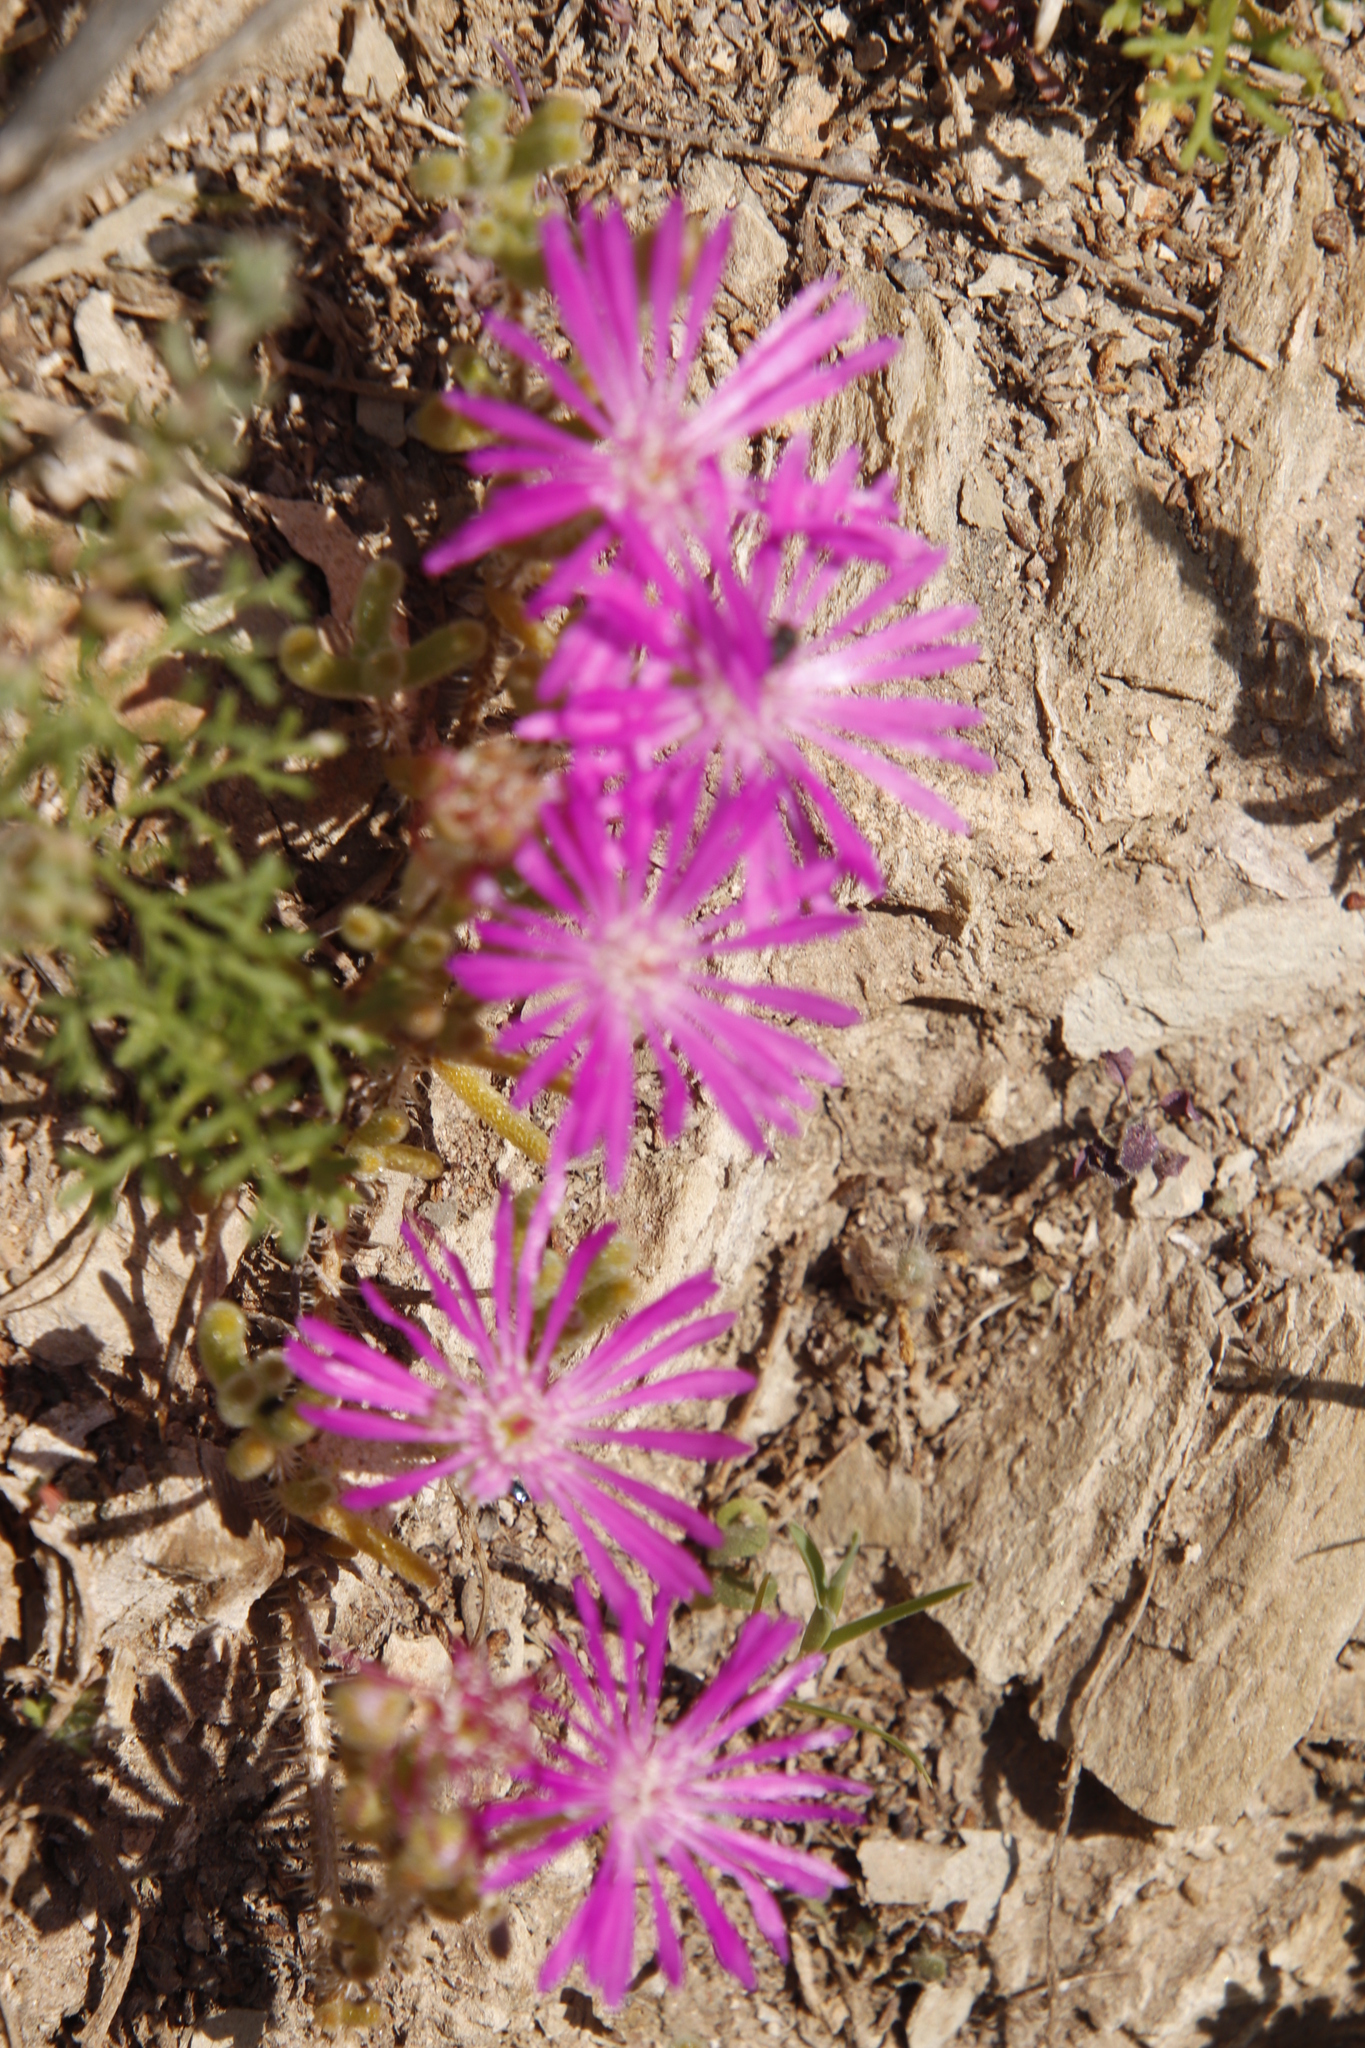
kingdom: Plantae
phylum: Tracheophyta
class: Magnoliopsida
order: Caryophyllales
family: Aizoaceae
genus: Drosanthemum
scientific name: Drosanthemum hispidum
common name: Hairy dewflower
